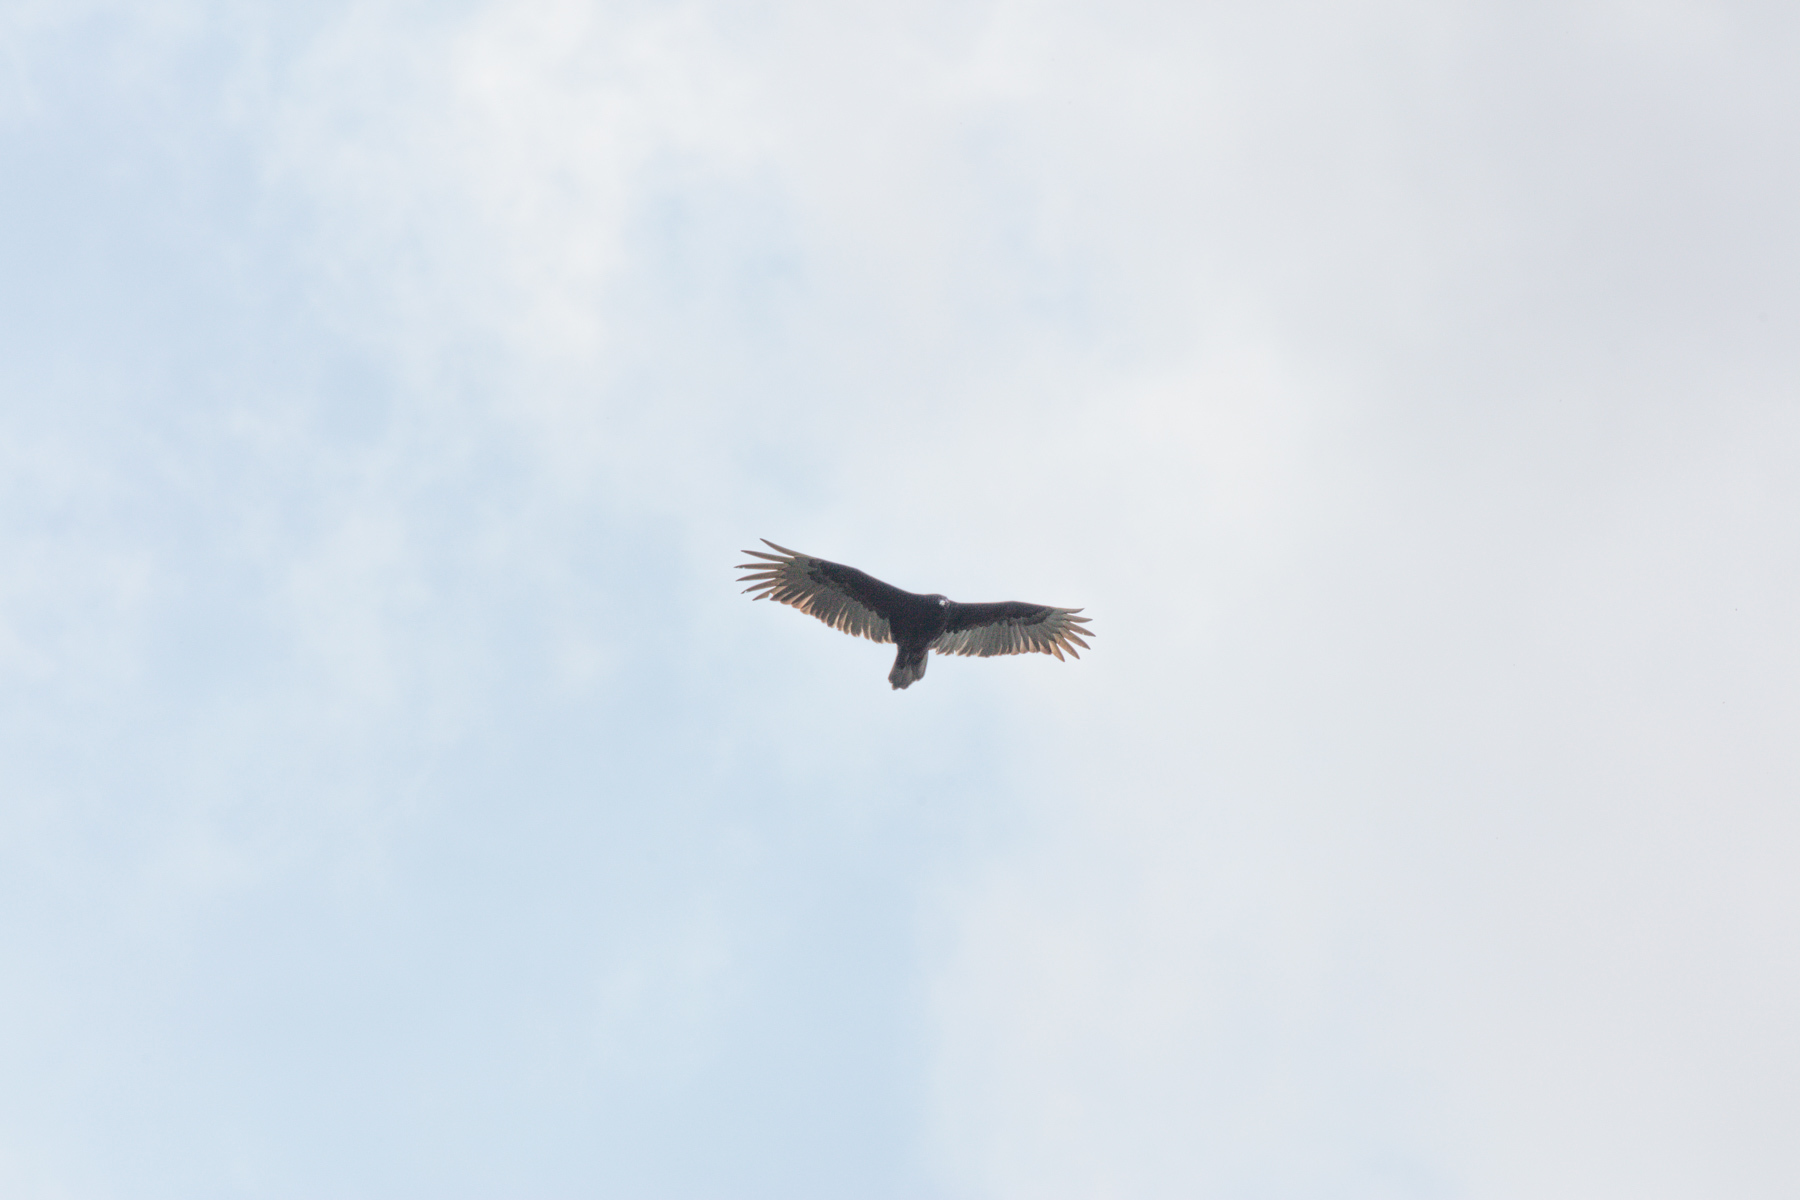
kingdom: Animalia
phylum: Chordata
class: Aves
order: Accipitriformes
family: Cathartidae
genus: Cathartes
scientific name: Cathartes aura
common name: Turkey vulture
